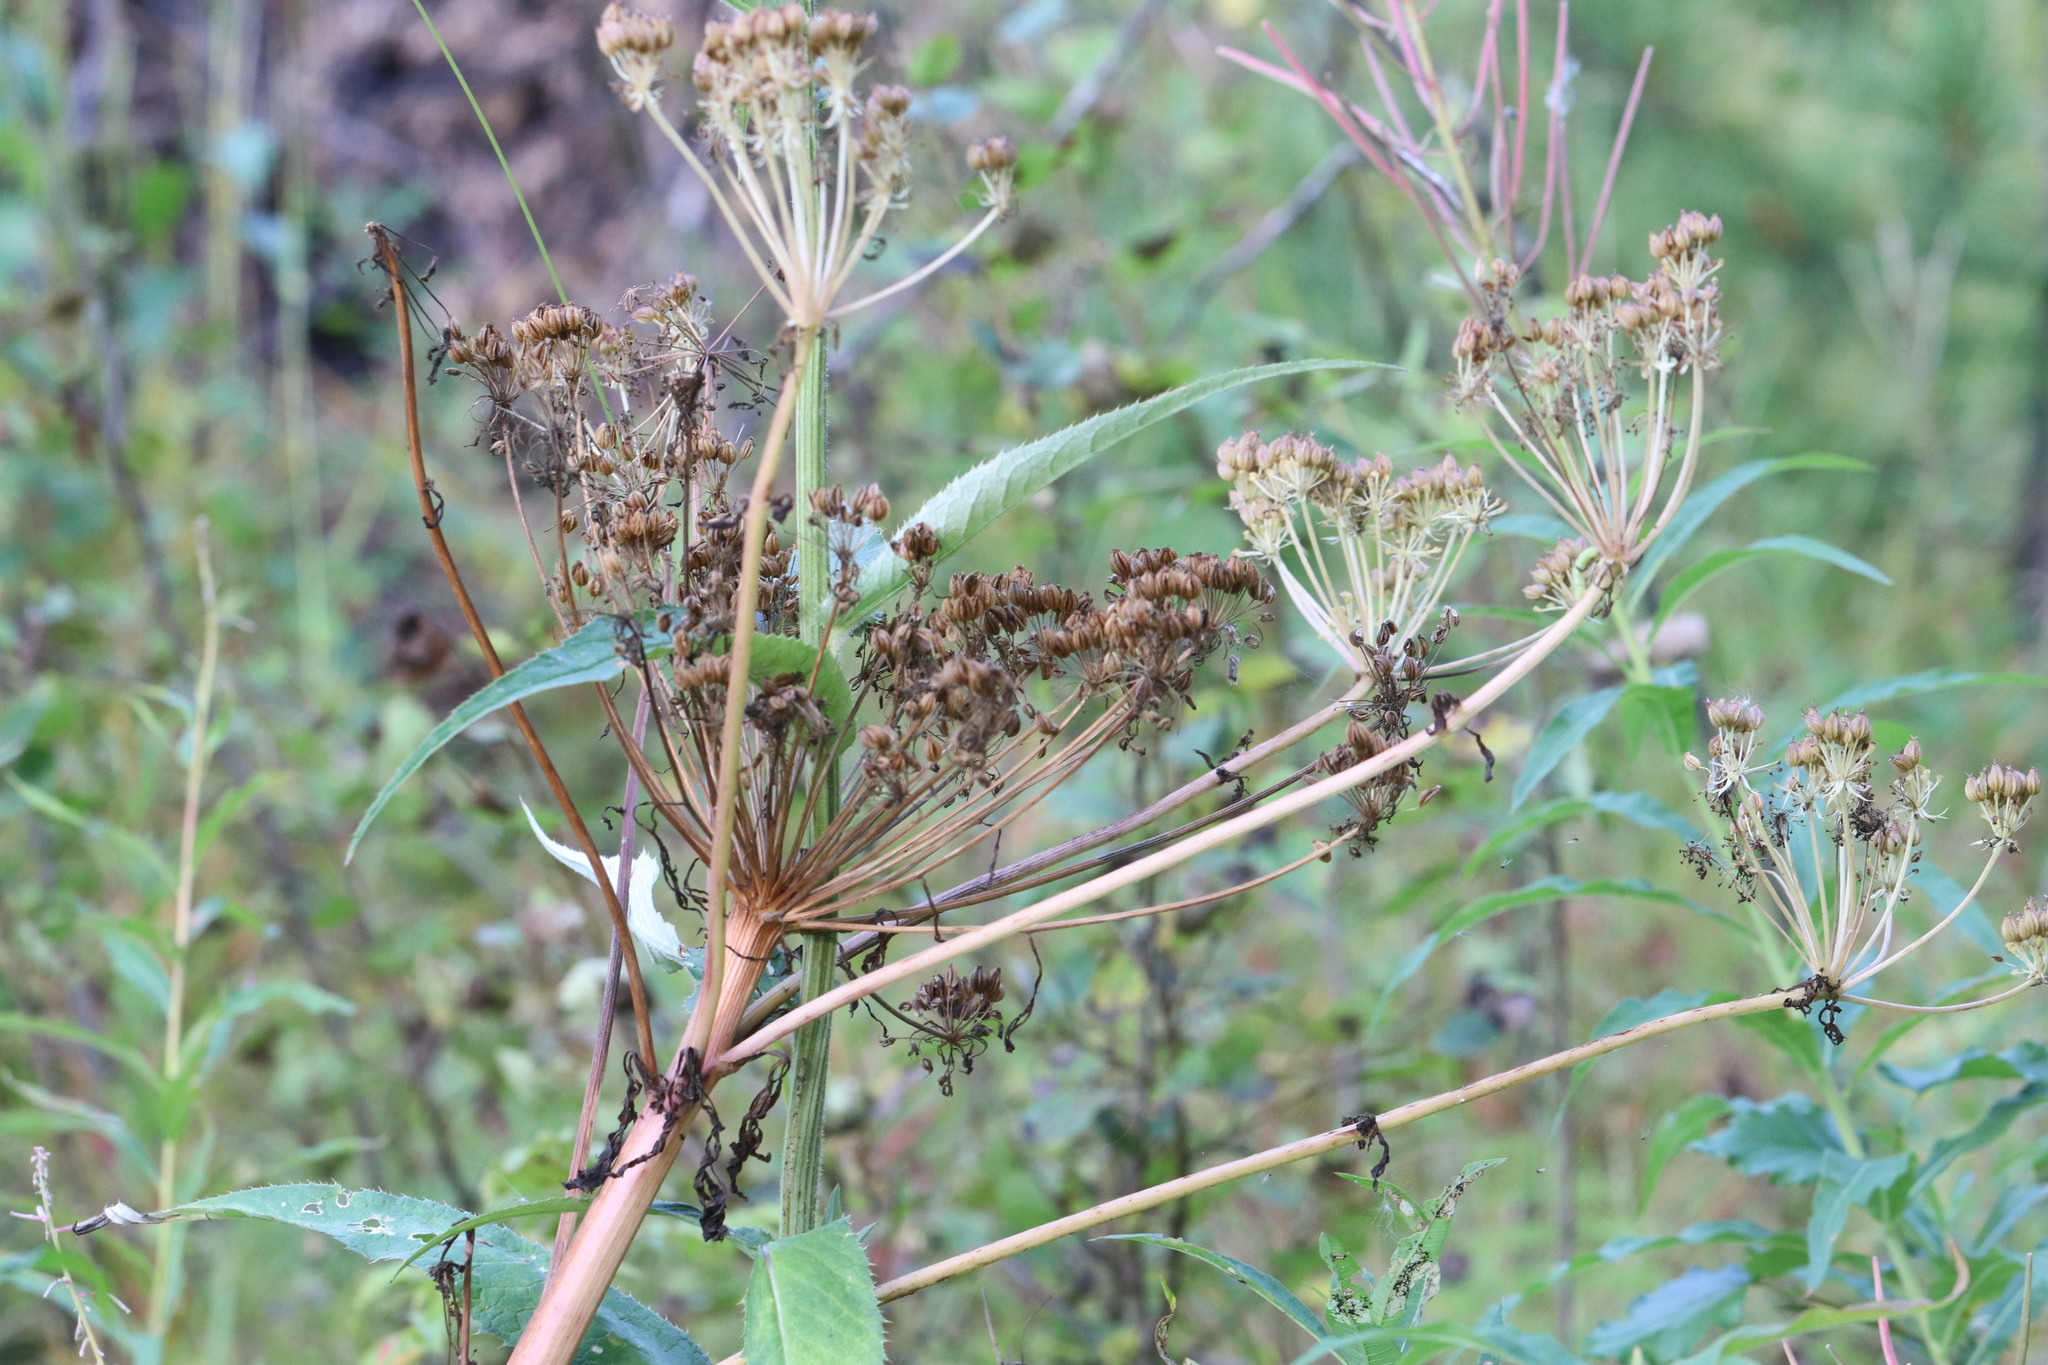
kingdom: Plantae
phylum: Tracheophyta
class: Magnoliopsida
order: Apiales
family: Apiaceae
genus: Pleurospermum
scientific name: Pleurospermum uralense
